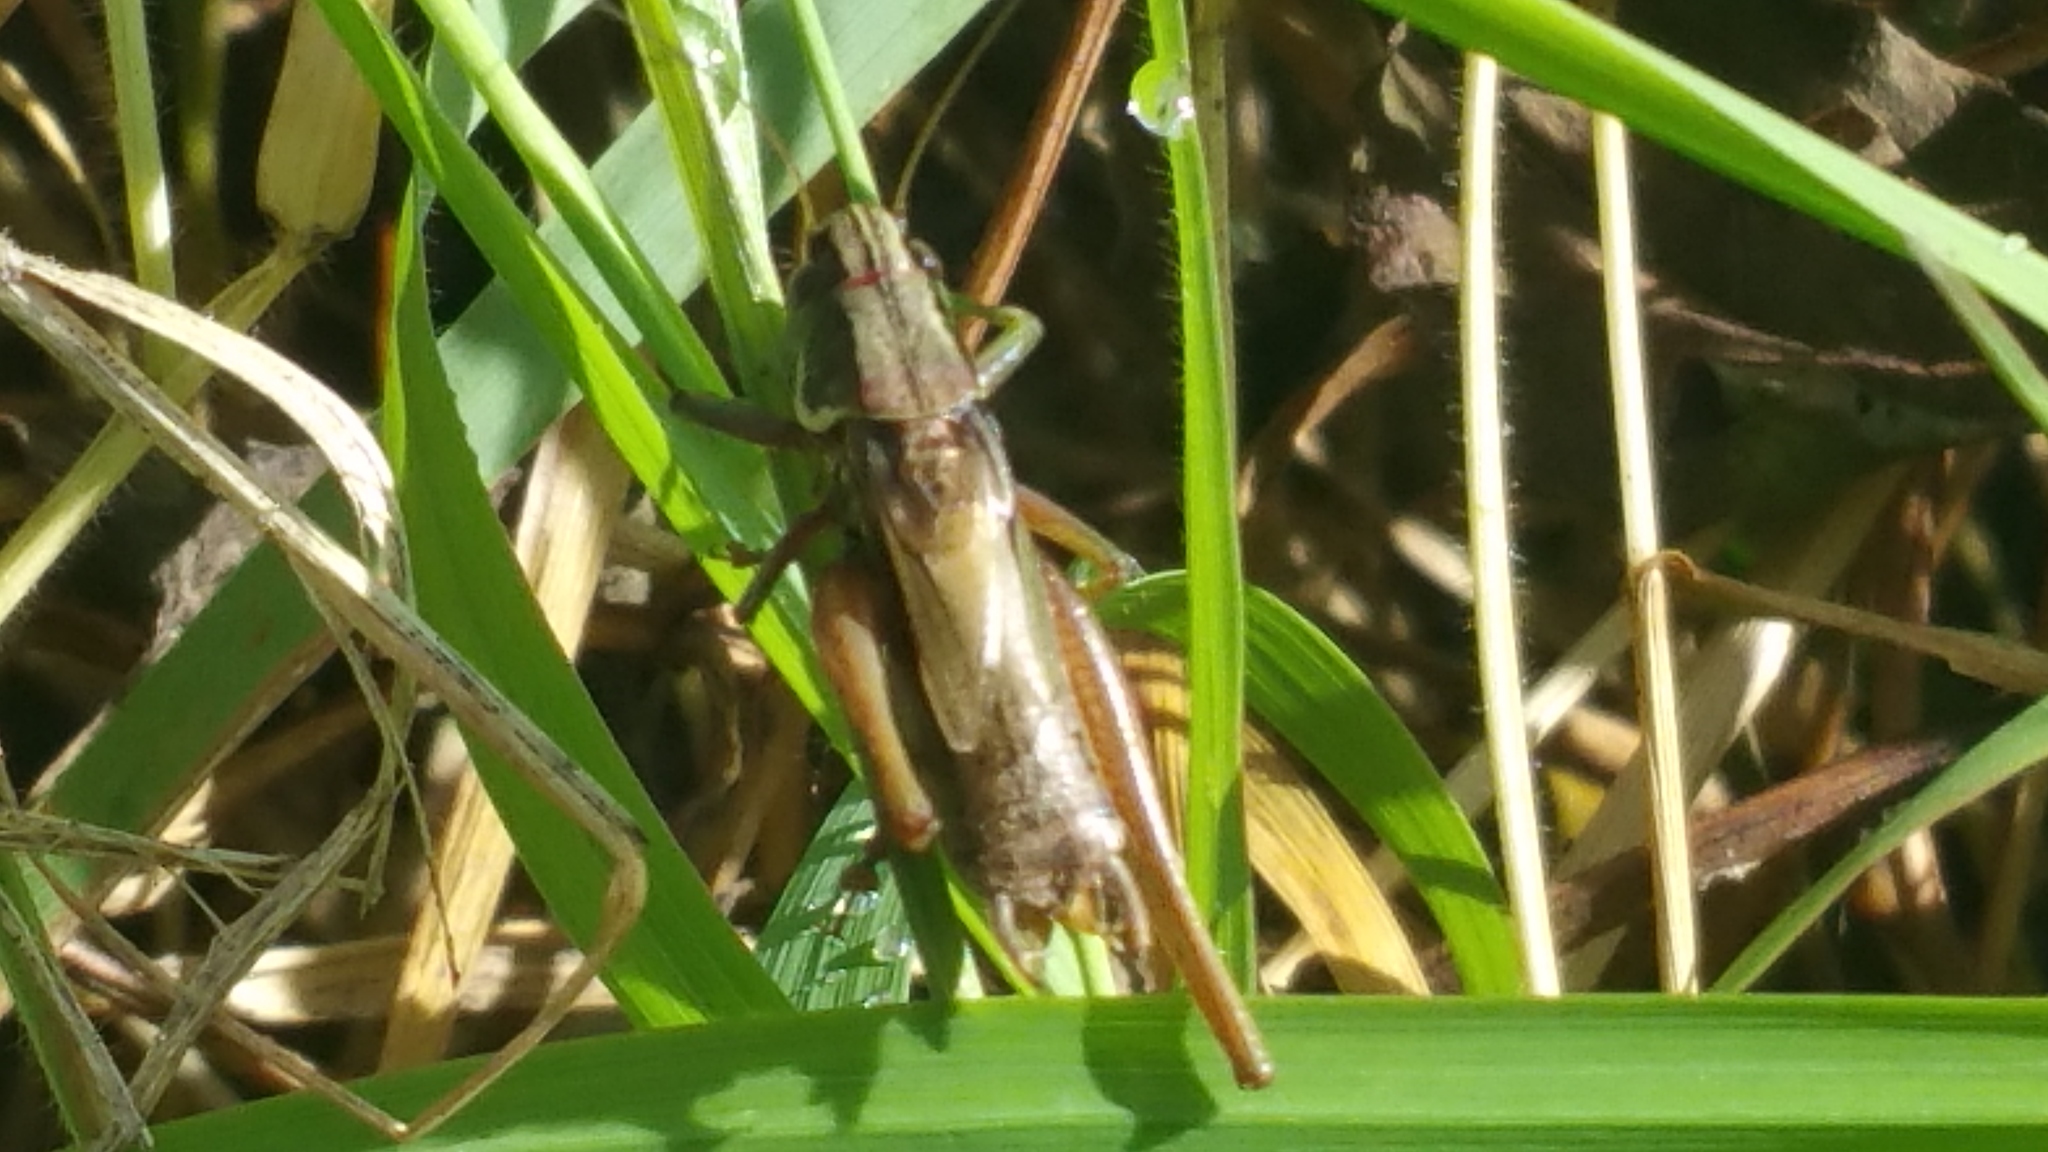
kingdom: Animalia
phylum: Arthropoda
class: Insecta
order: Orthoptera
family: Tettigoniidae
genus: Roeseliana
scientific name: Roeseliana roeselii
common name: Roesel's bush cricket
